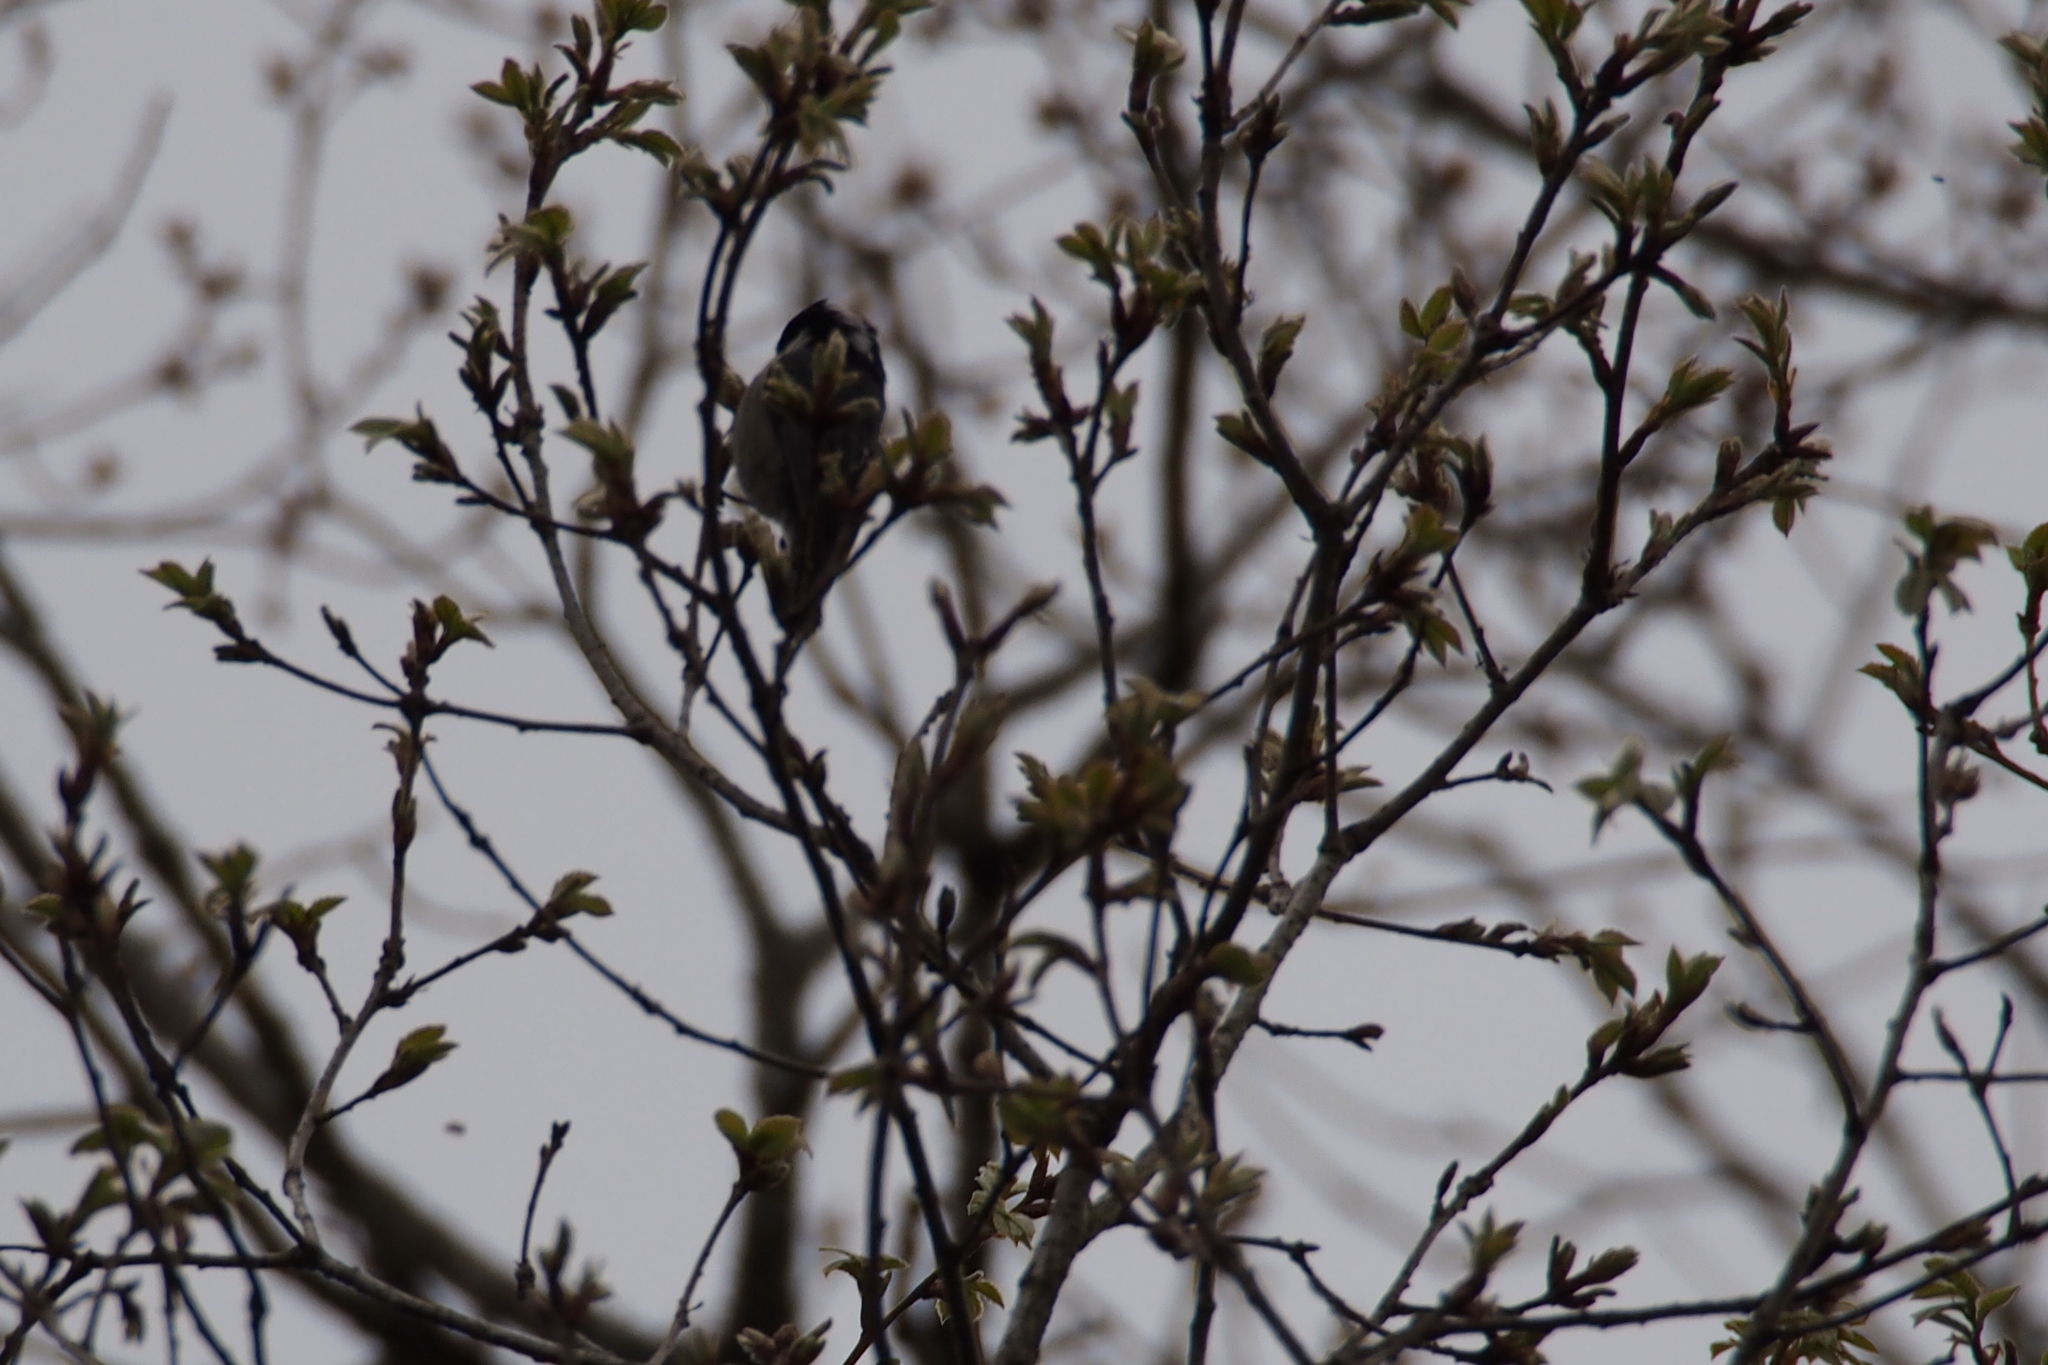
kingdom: Animalia
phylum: Chordata
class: Aves
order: Passeriformes
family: Paridae
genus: Periparus
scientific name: Periparus ater
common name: Coal tit
